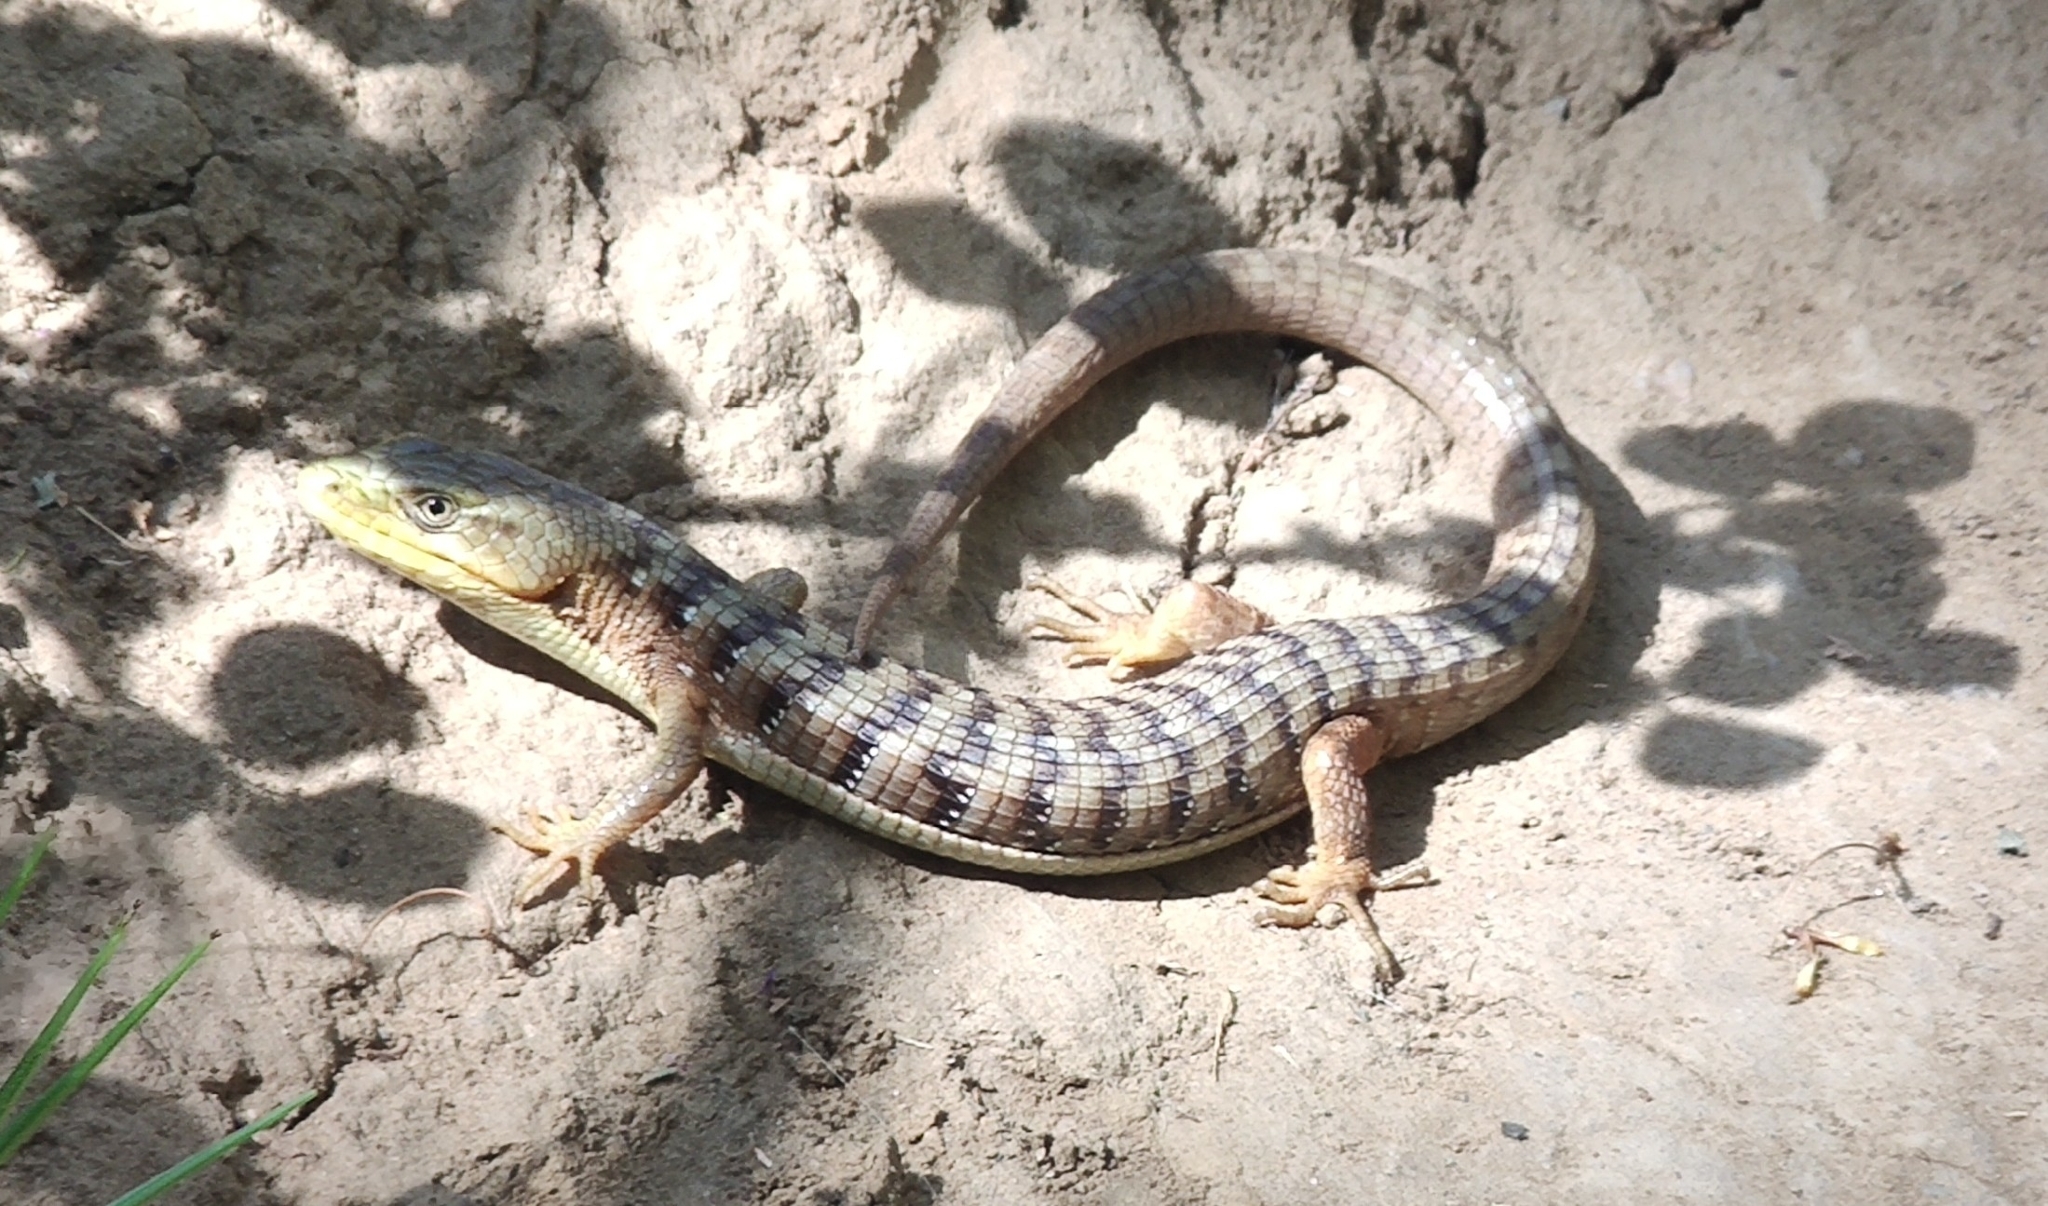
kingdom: Animalia
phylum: Chordata
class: Squamata
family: Anguidae
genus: Elgaria
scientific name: Elgaria multicarinata
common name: Southern alligator lizard
